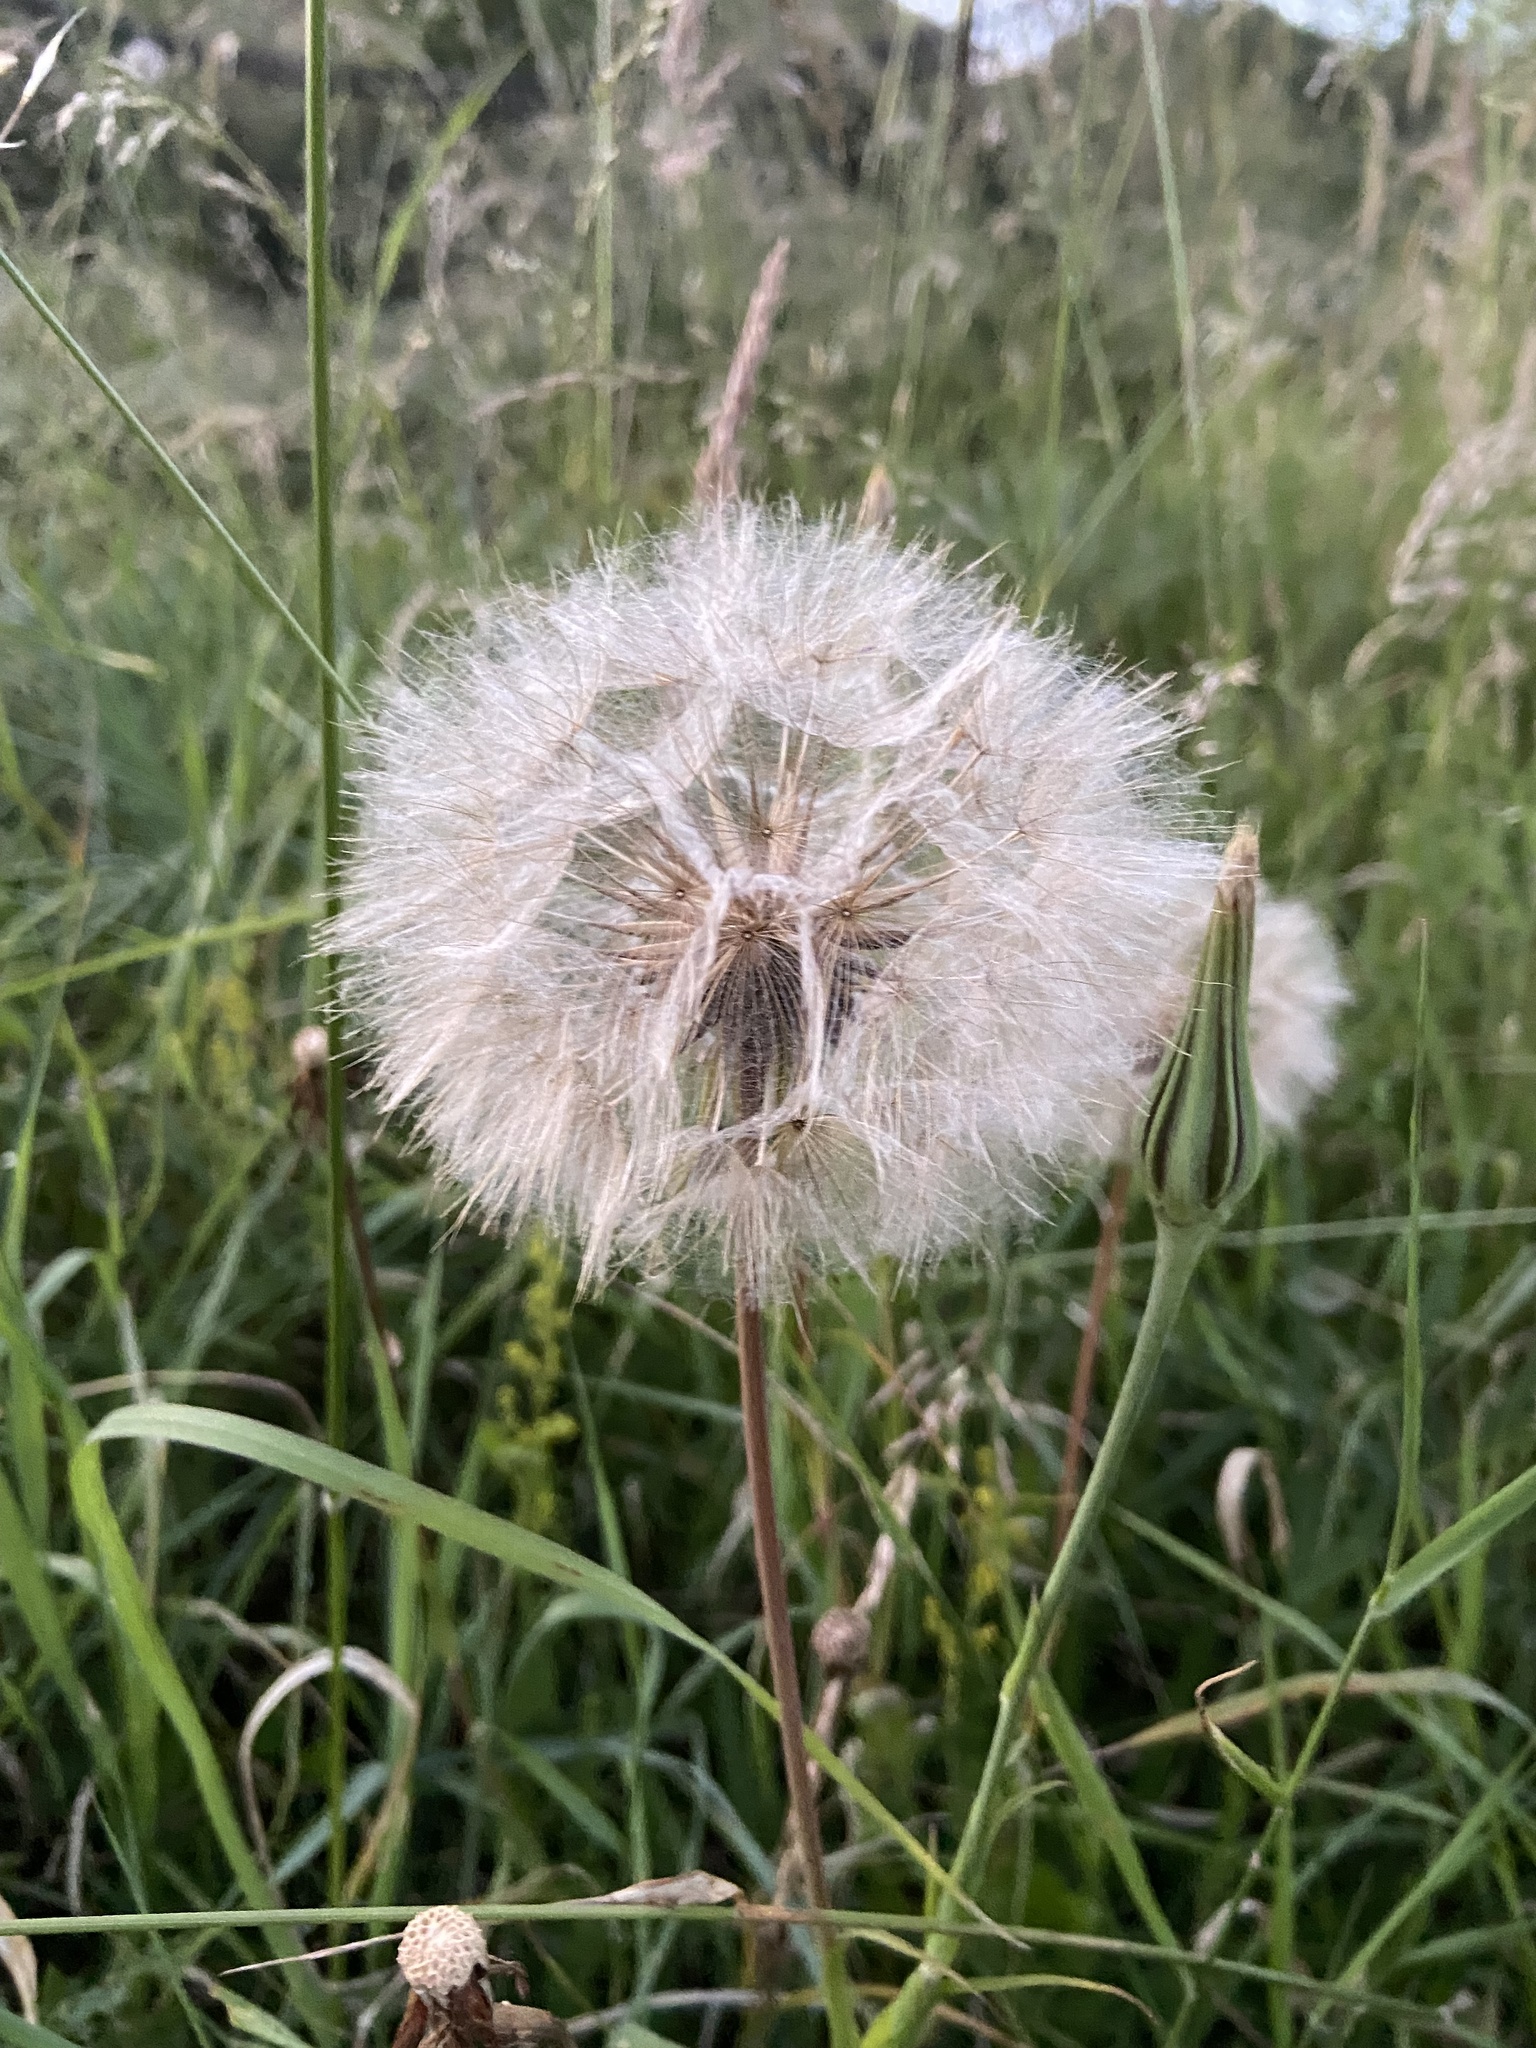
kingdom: Plantae
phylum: Tracheophyta
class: Magnoliopsida
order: Asterales
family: Asteraceae
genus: Tragopogon
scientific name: Tragopogon pratensis
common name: Goat's-beard
